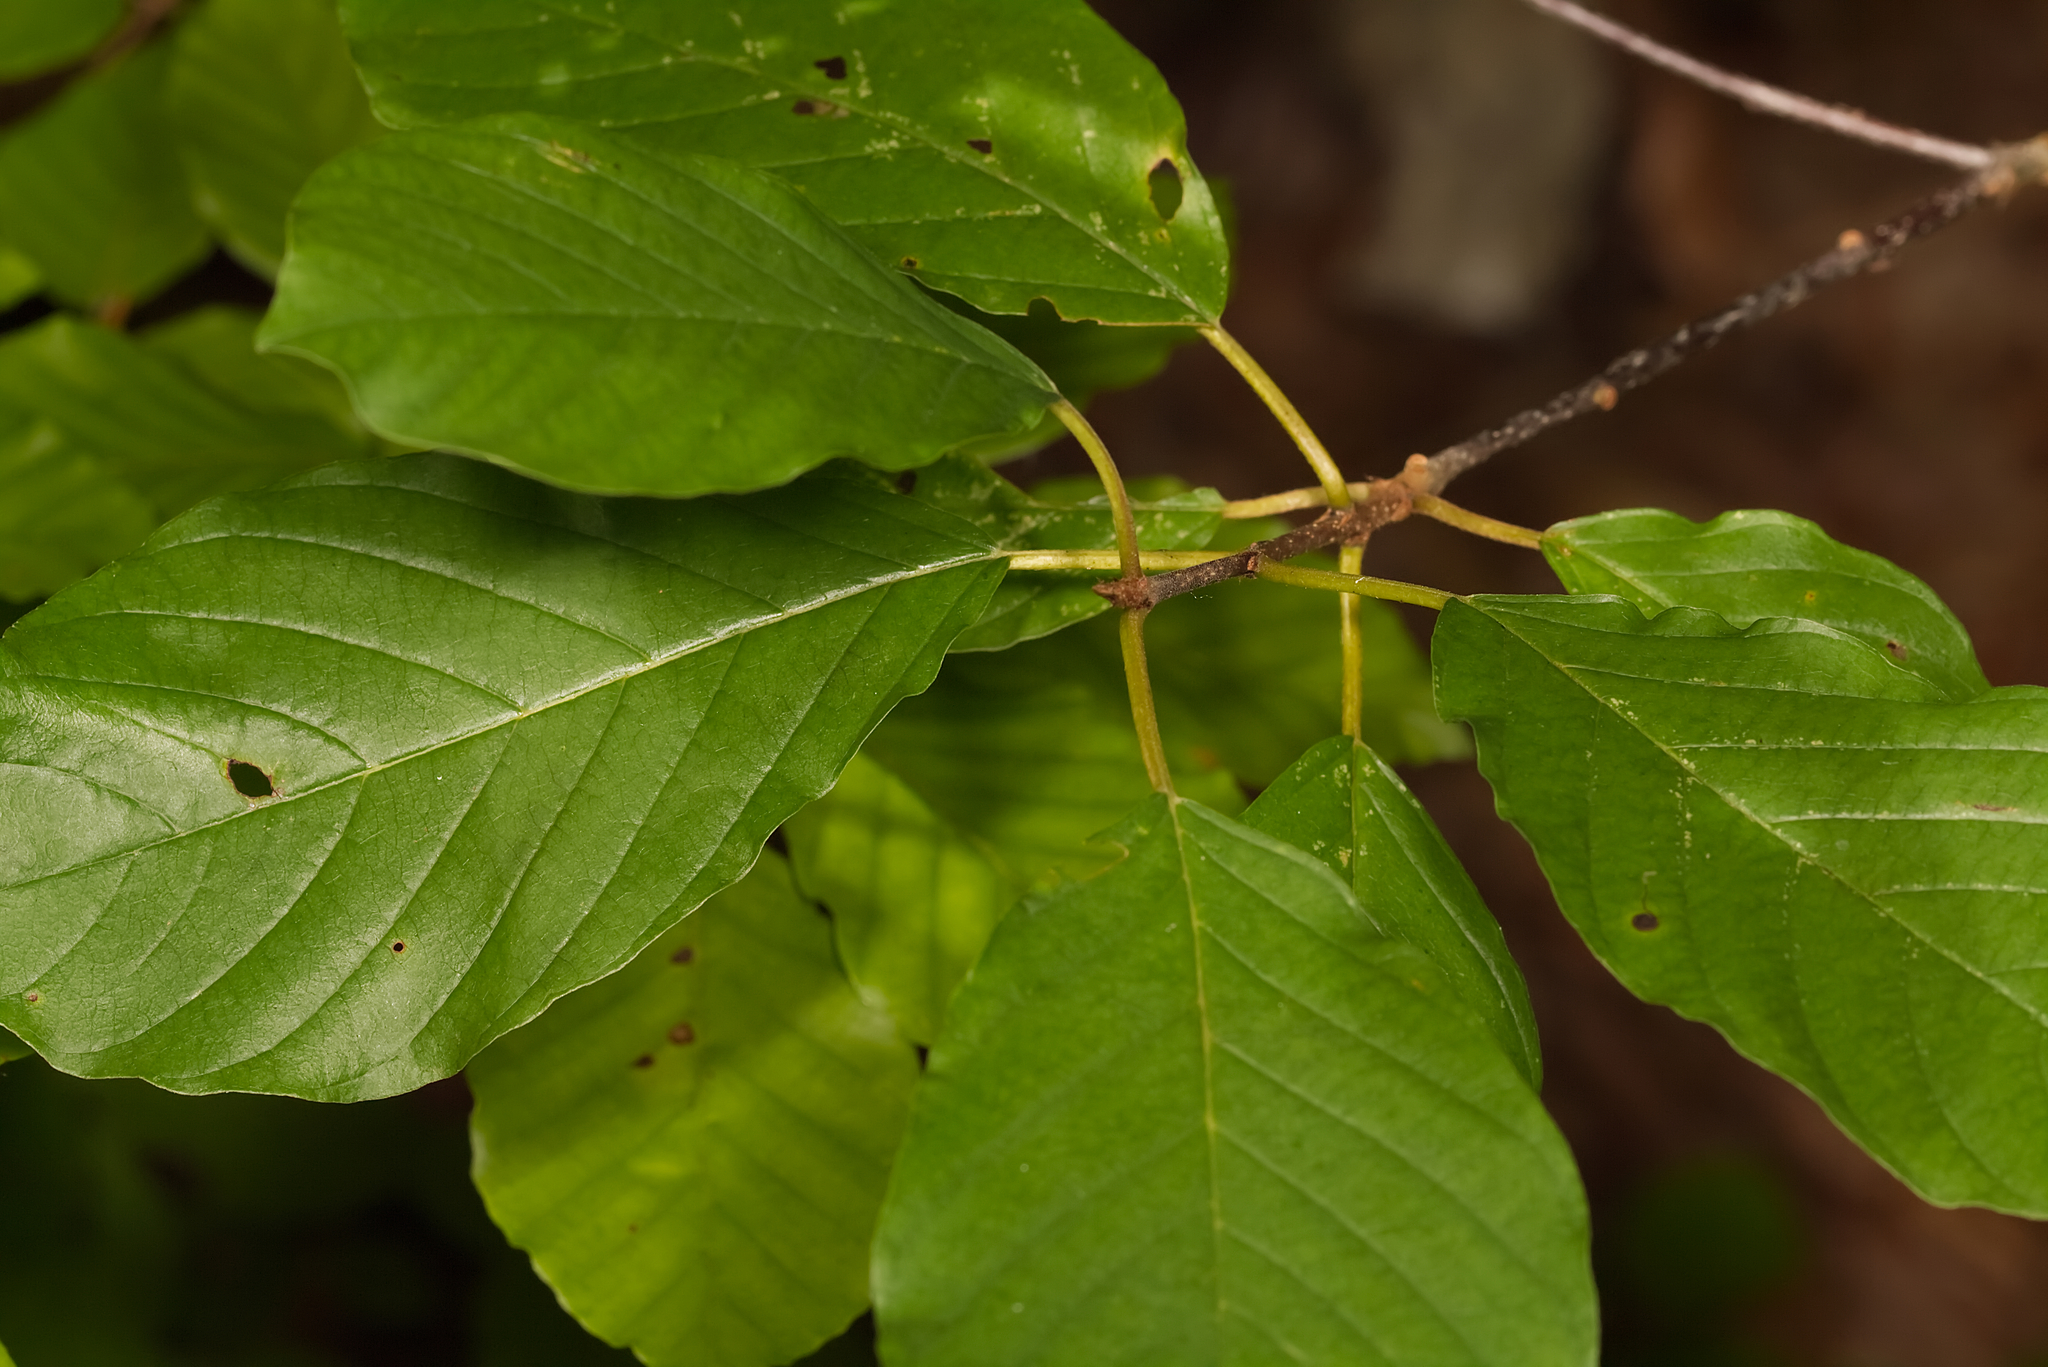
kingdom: Plantae
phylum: Tracheophyta
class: Magnoliopsida
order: Rosales
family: Rhamnaceae
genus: Frangula
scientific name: Frangula alnus
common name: Alder buckthorn
